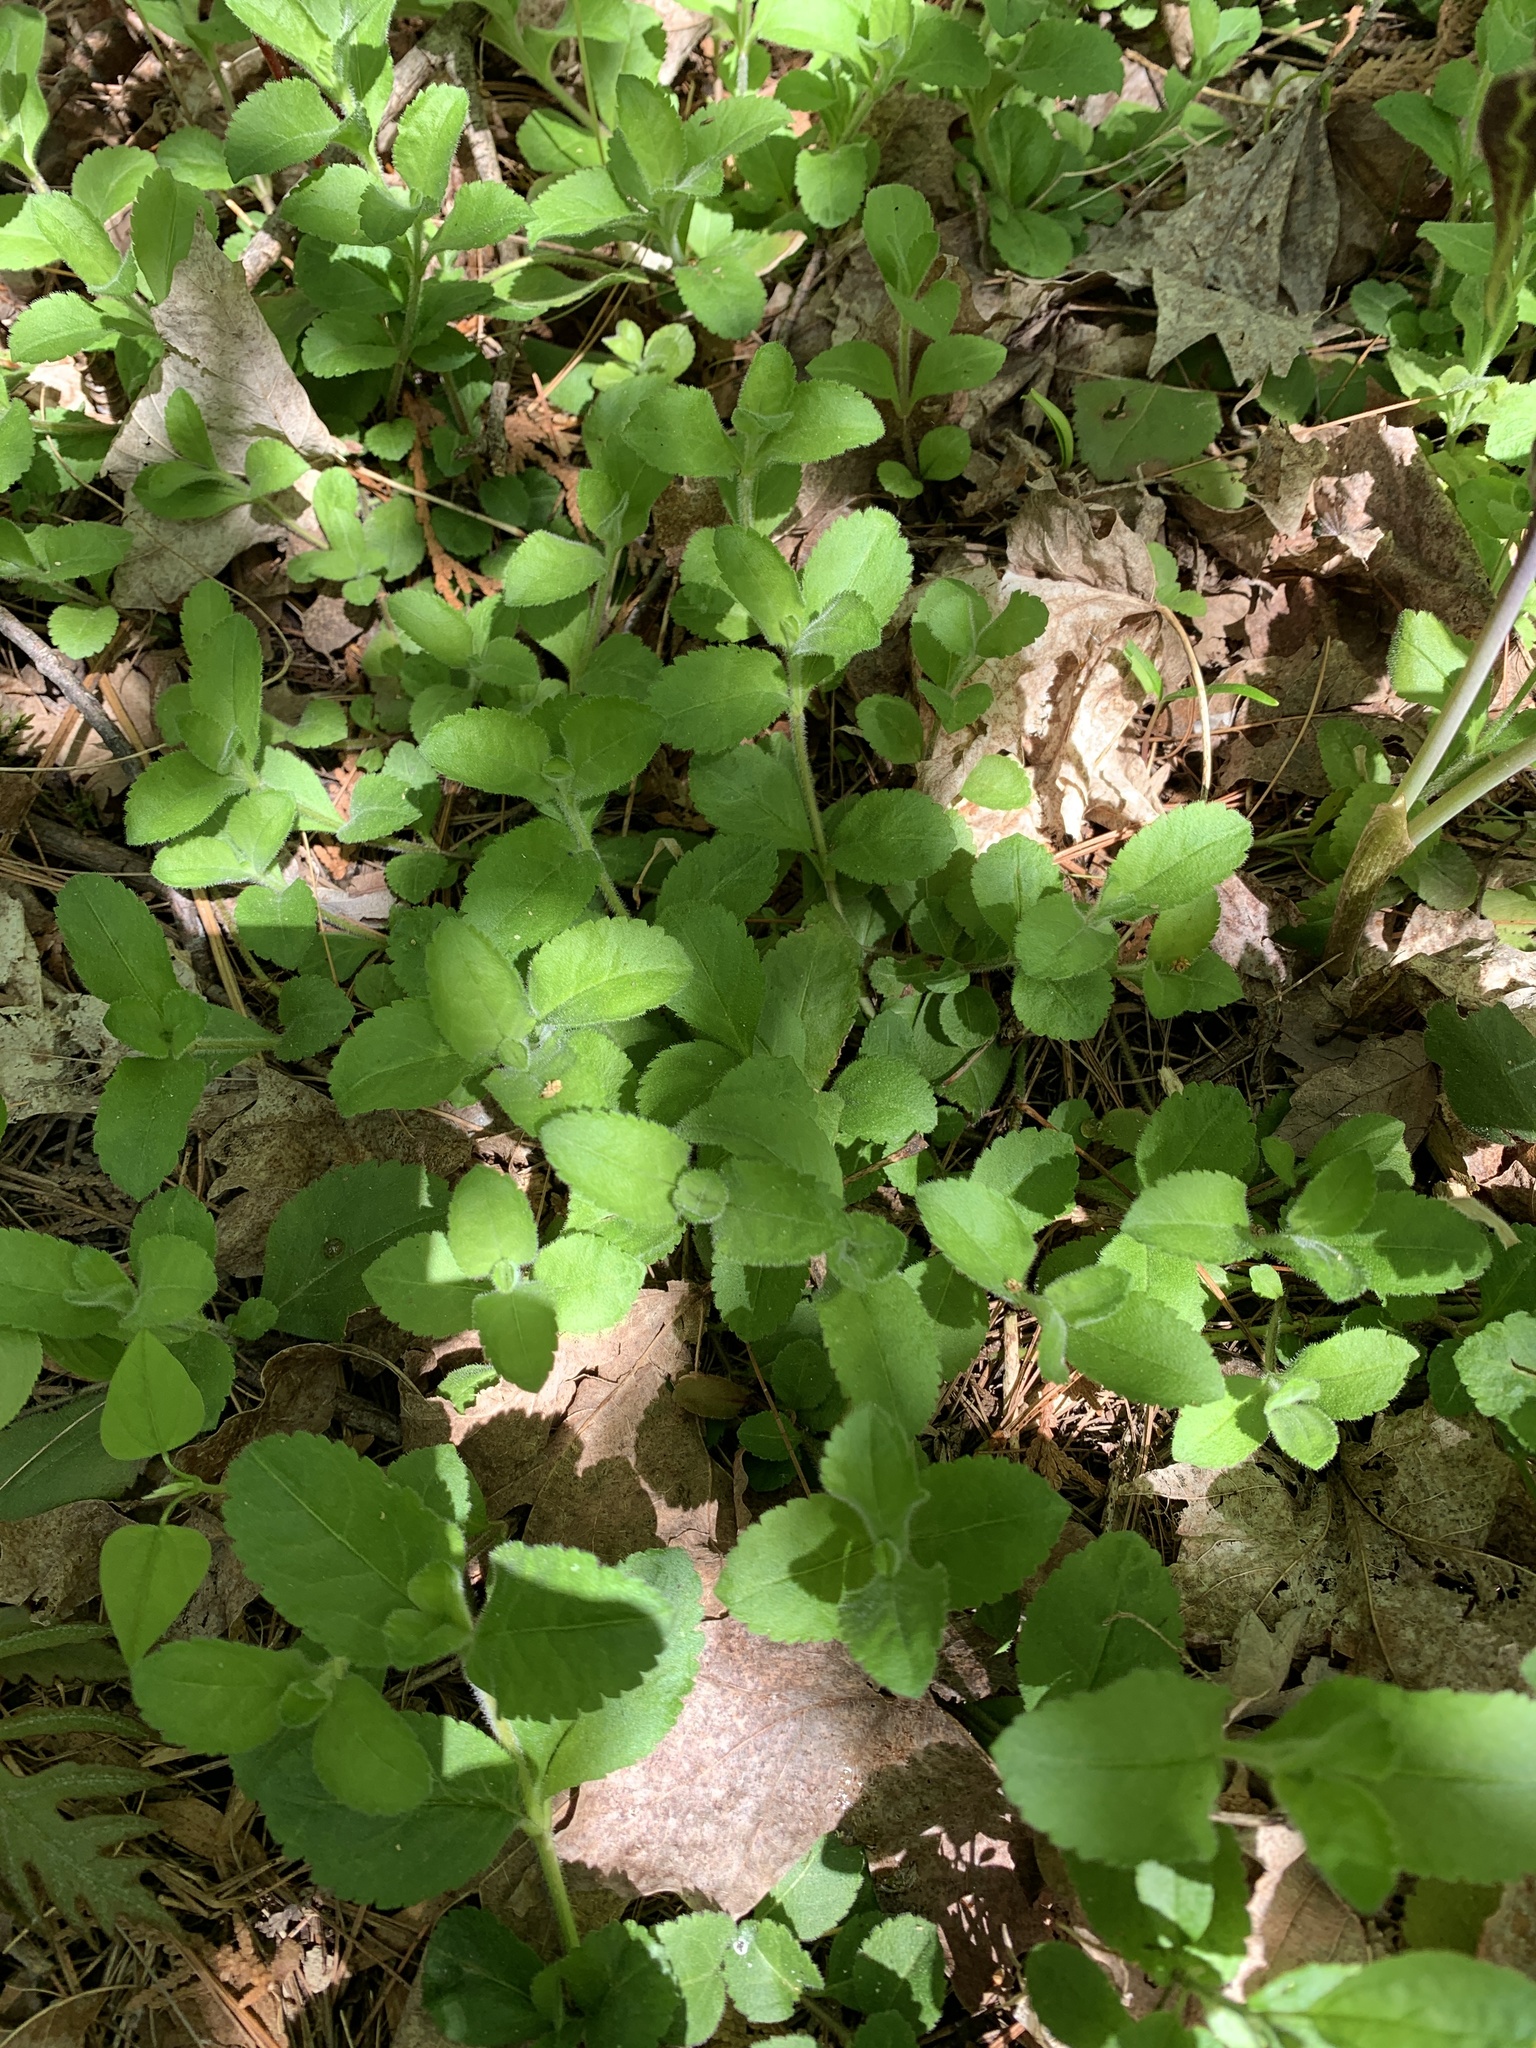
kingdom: Plantae
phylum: Tracheophyta
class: Magnoliopsida
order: Lamiales
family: Plantaginaceae
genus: Veronica
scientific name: Veronica officinalis
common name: Common speedwell
